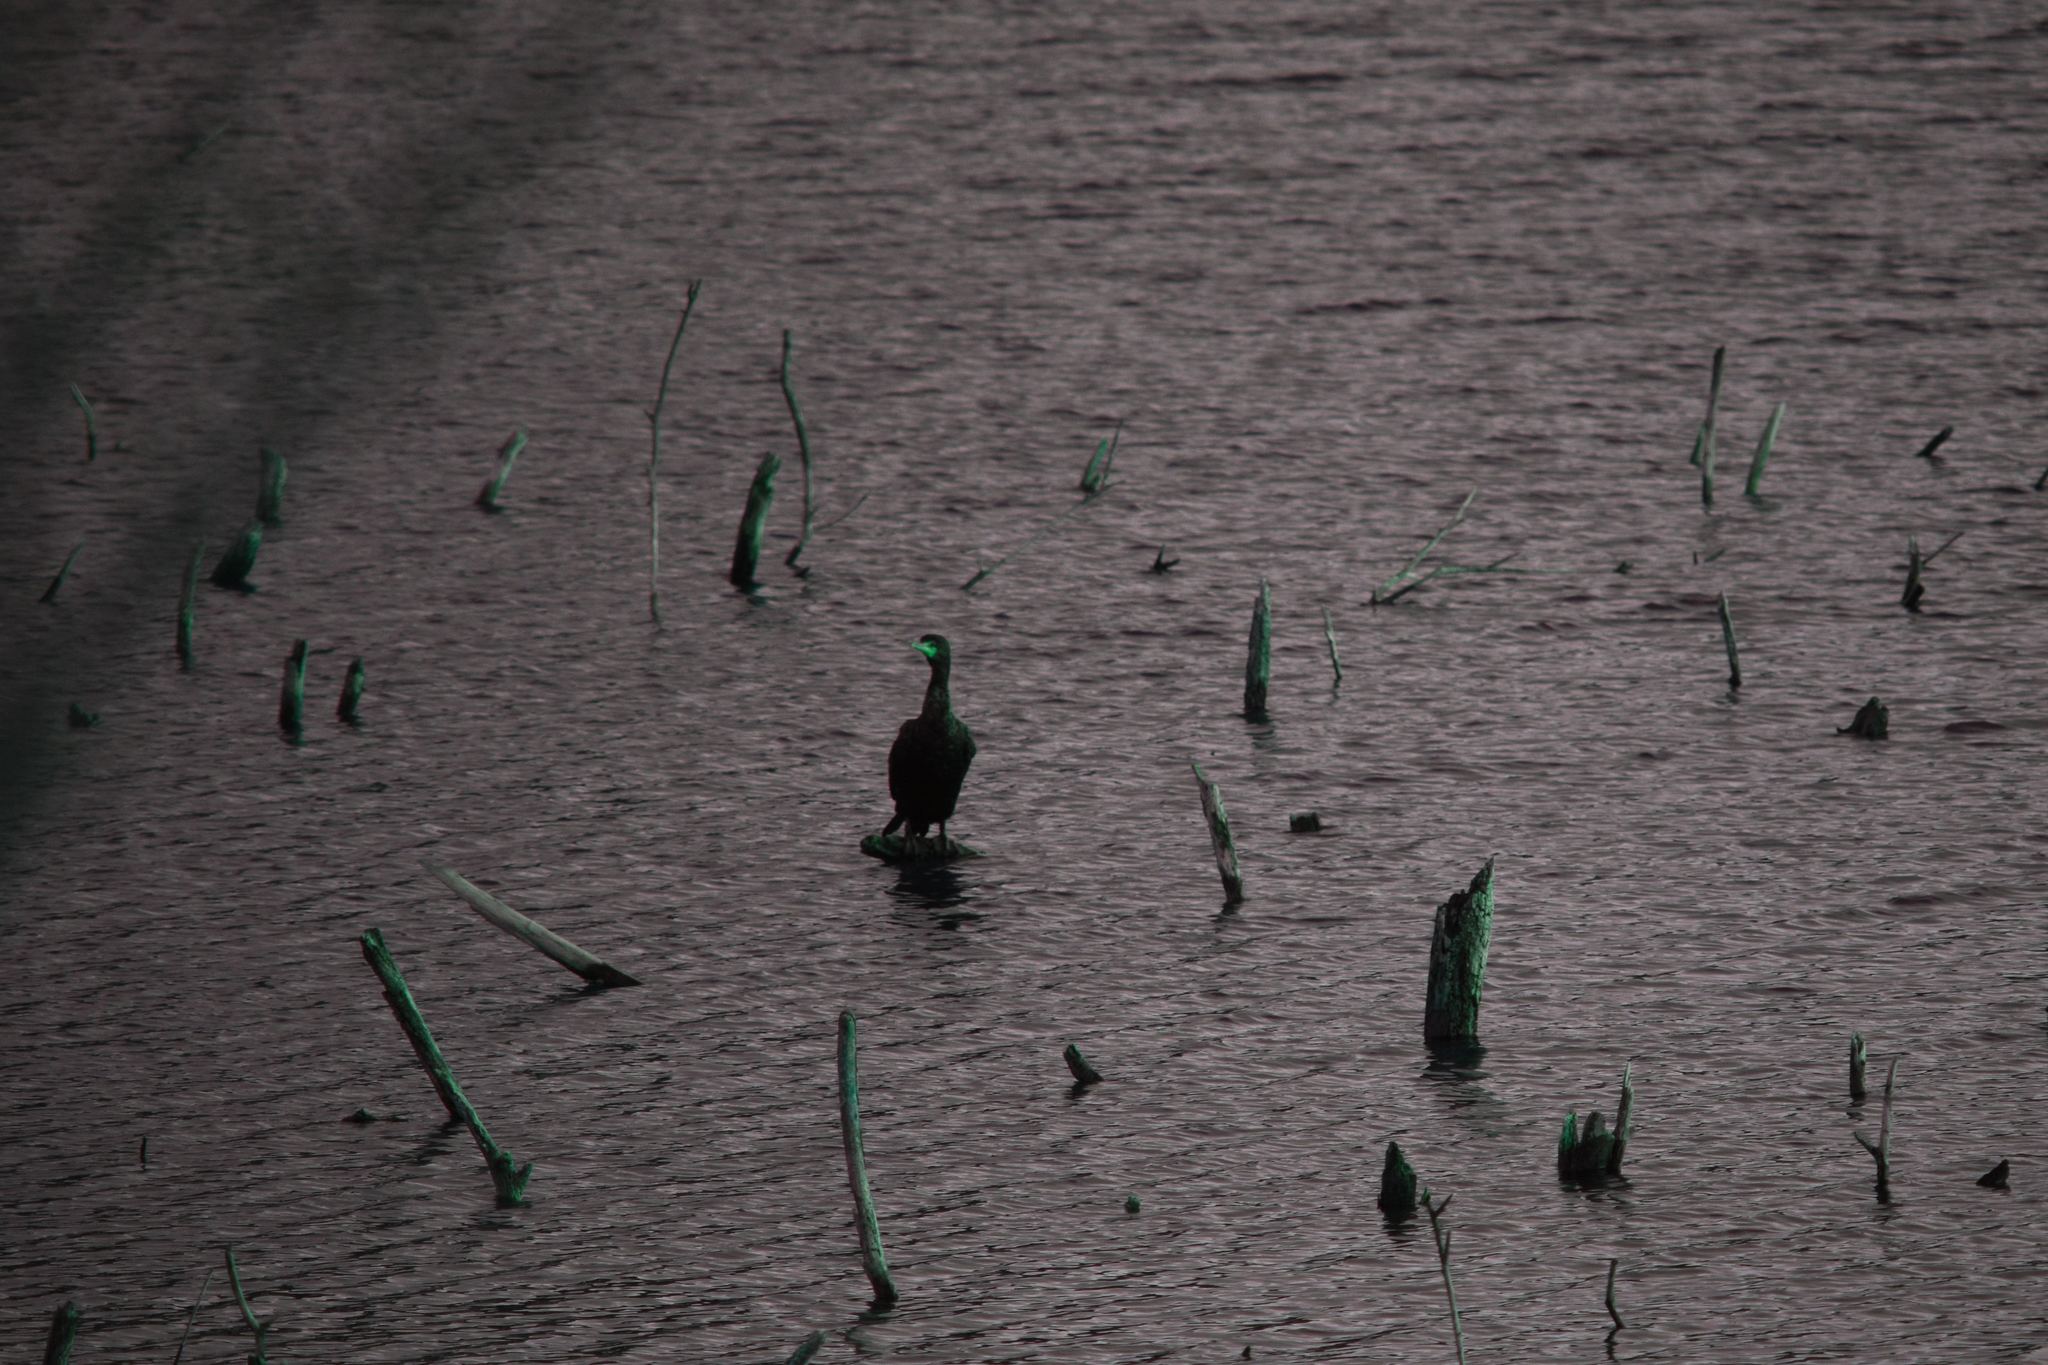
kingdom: Animalia
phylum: Chordata
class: Aves
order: Suliformes
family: Phalacrocoracidae
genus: Phalacrocorax
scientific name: Phalacrocorax auritus
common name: Double-crested cormorant
